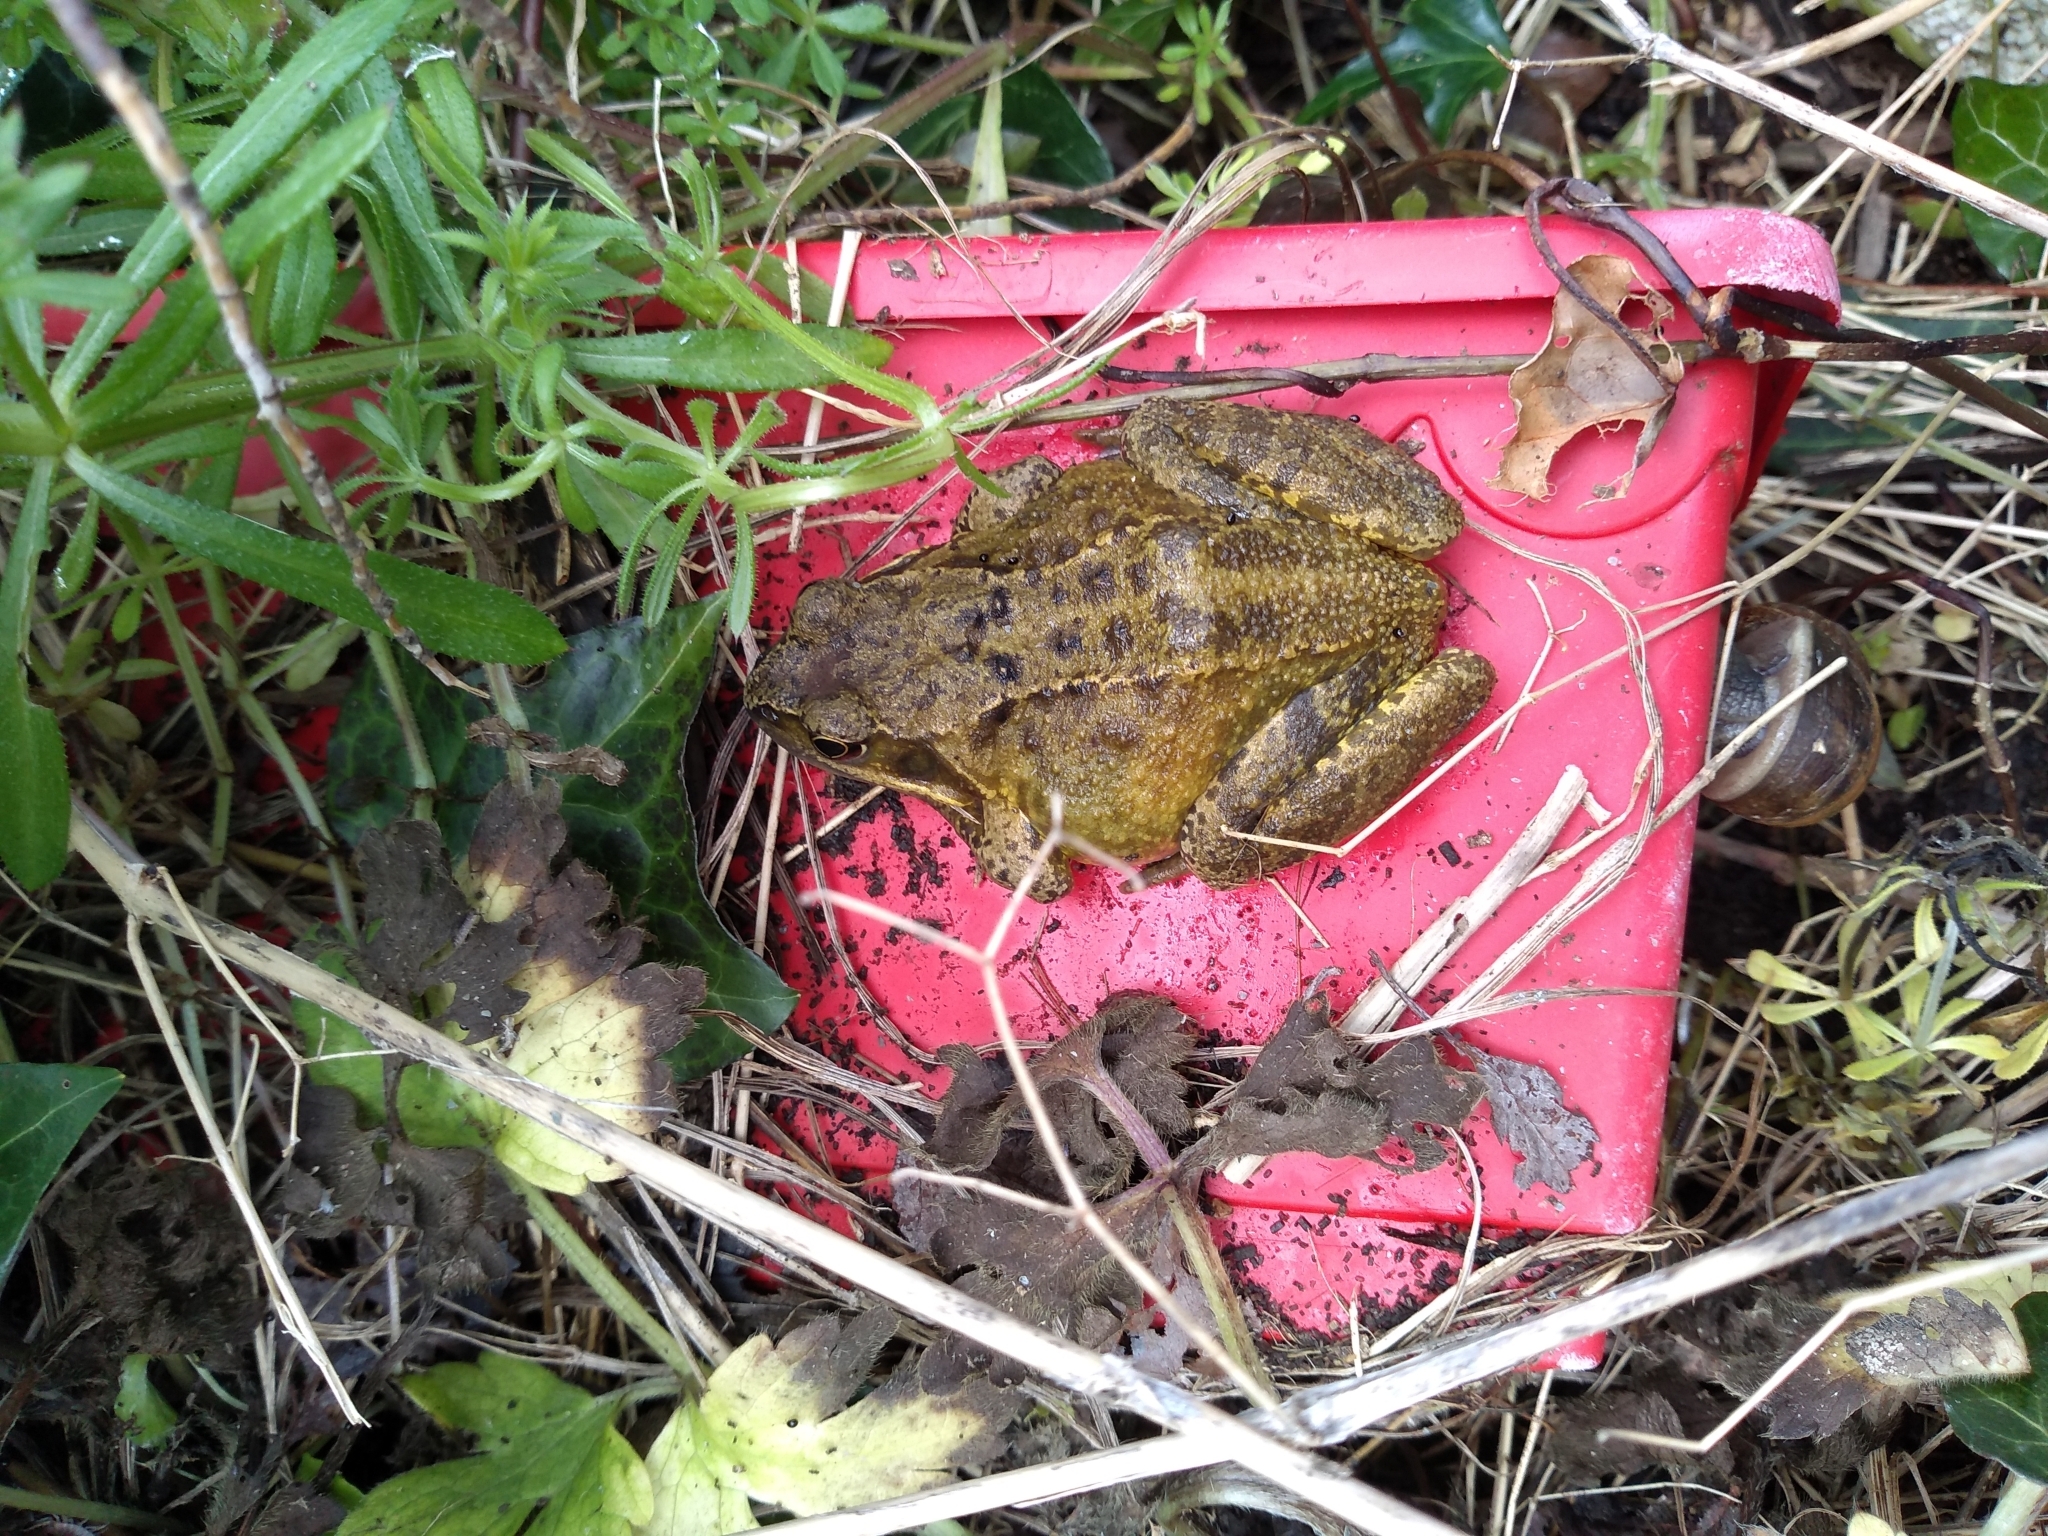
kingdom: Animalia
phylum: Chordata
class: Amphibia
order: Anura
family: Ranidae
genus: Rana
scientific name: Rana temporaria
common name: Common frog
